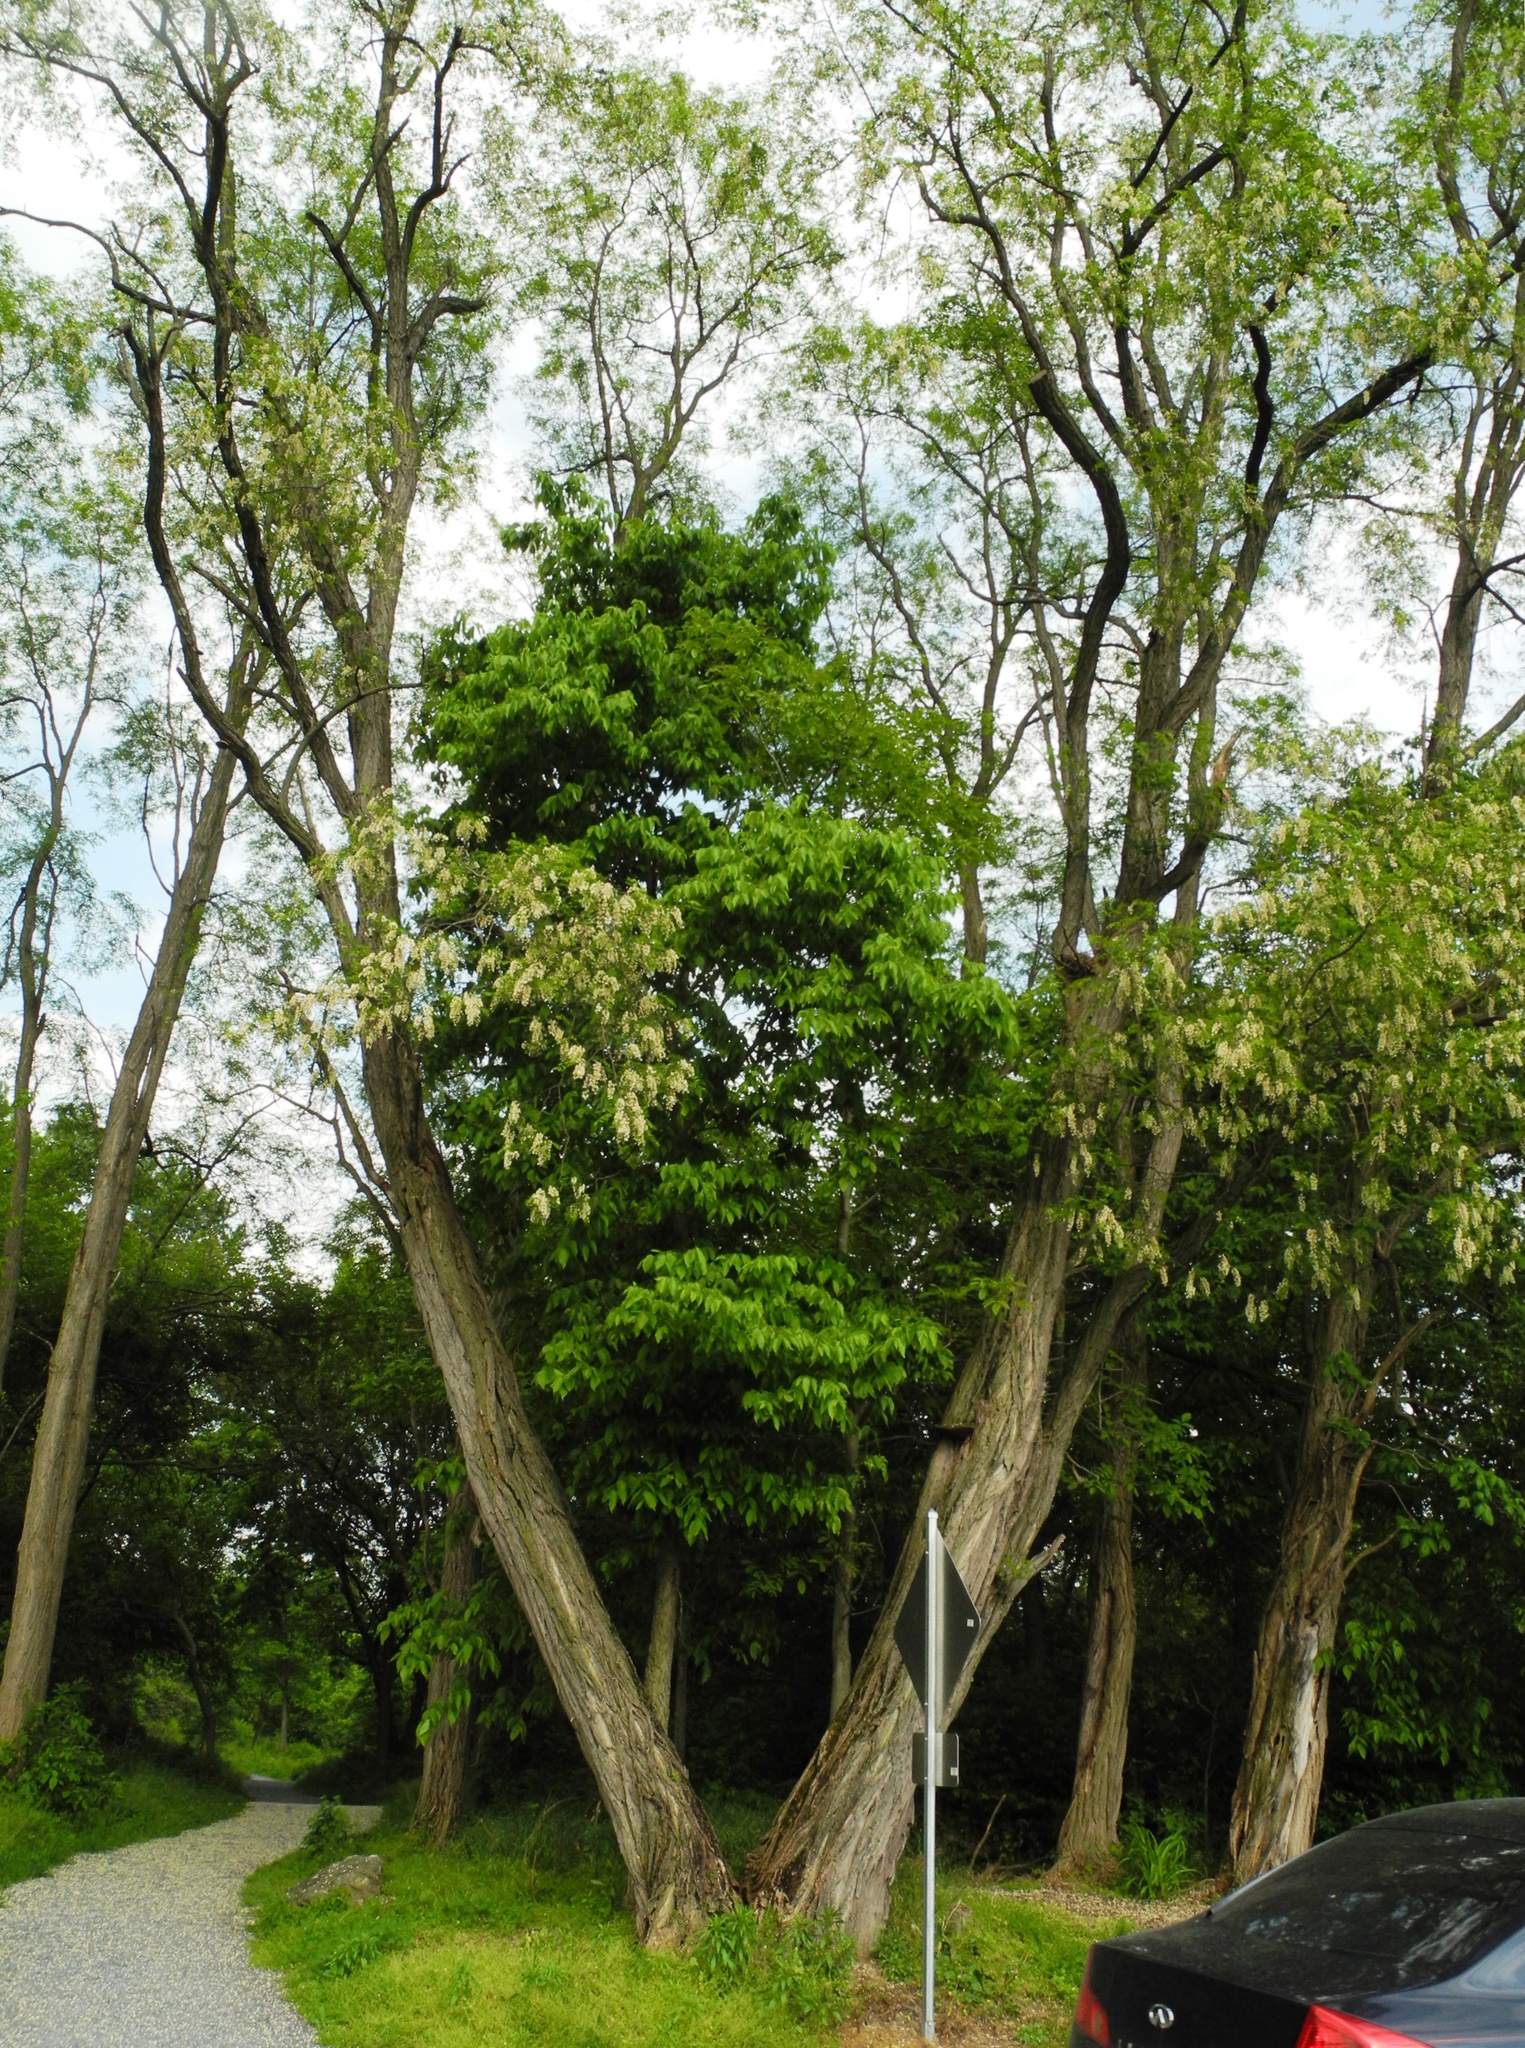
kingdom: Plantae
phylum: Tracheophyta
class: Magnoliopsida
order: Fabales
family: Fabaceae
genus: Robinia
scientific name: Robinia pseudoacacia
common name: Black locust
